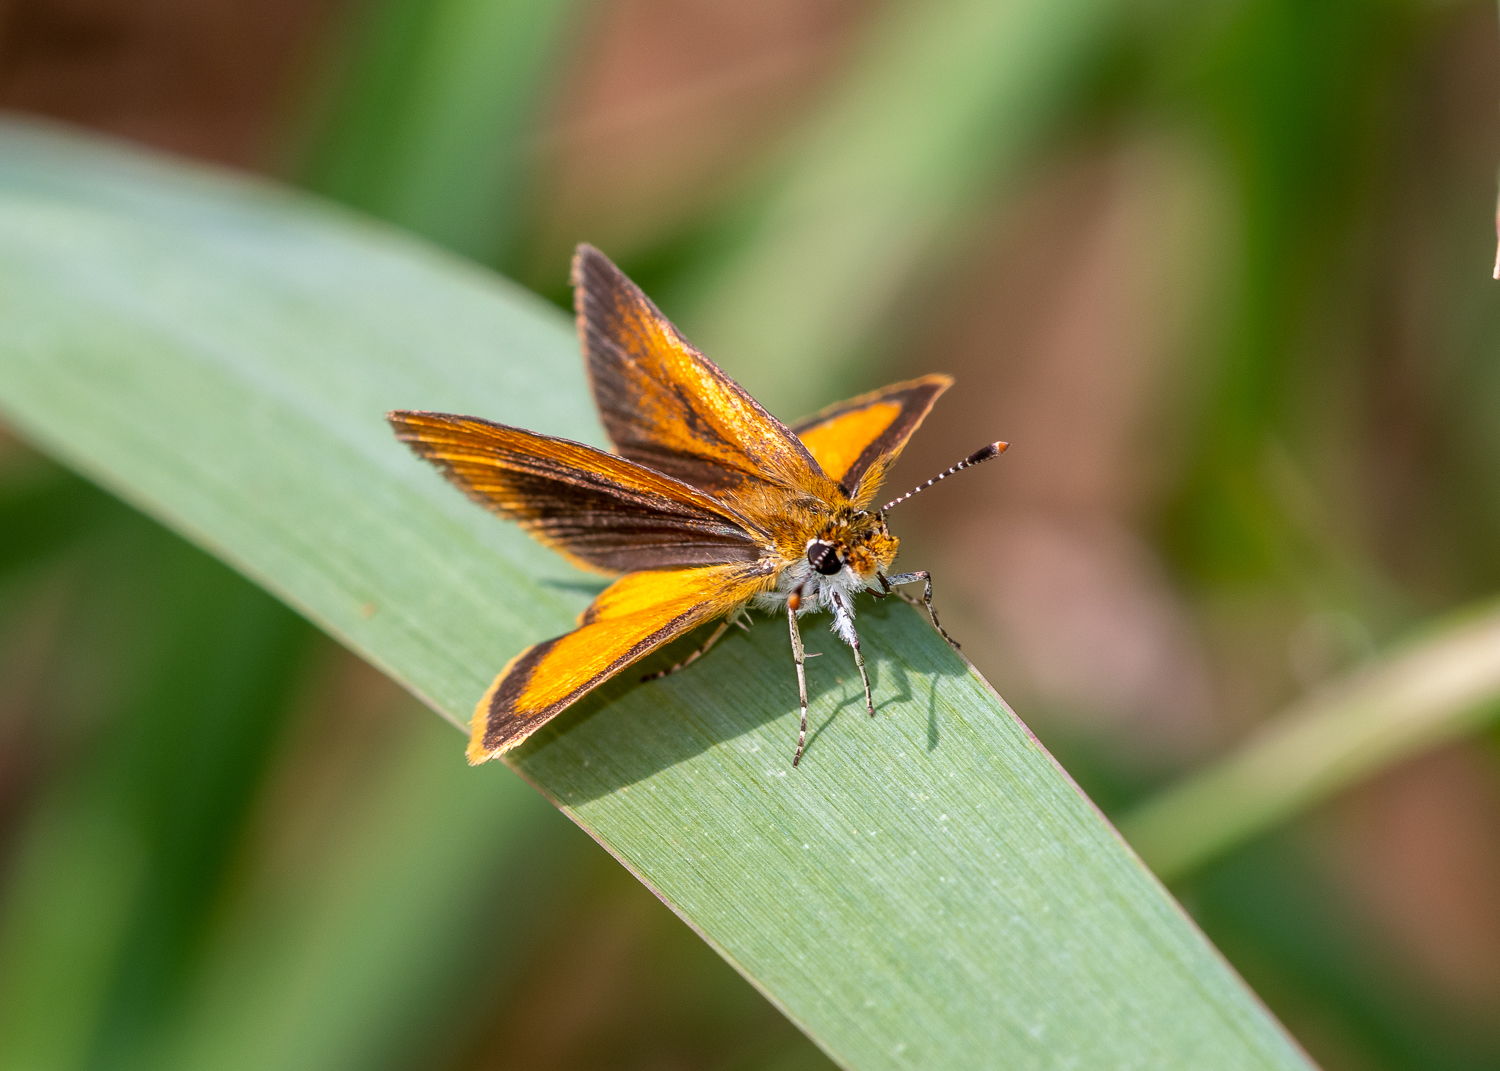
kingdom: Animalia
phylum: Arthropoda
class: Insecta
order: Lepidoptera
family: Hesperiidae
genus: Ancyloxypha
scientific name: Ancyloxypha numitor
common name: Least skipper
